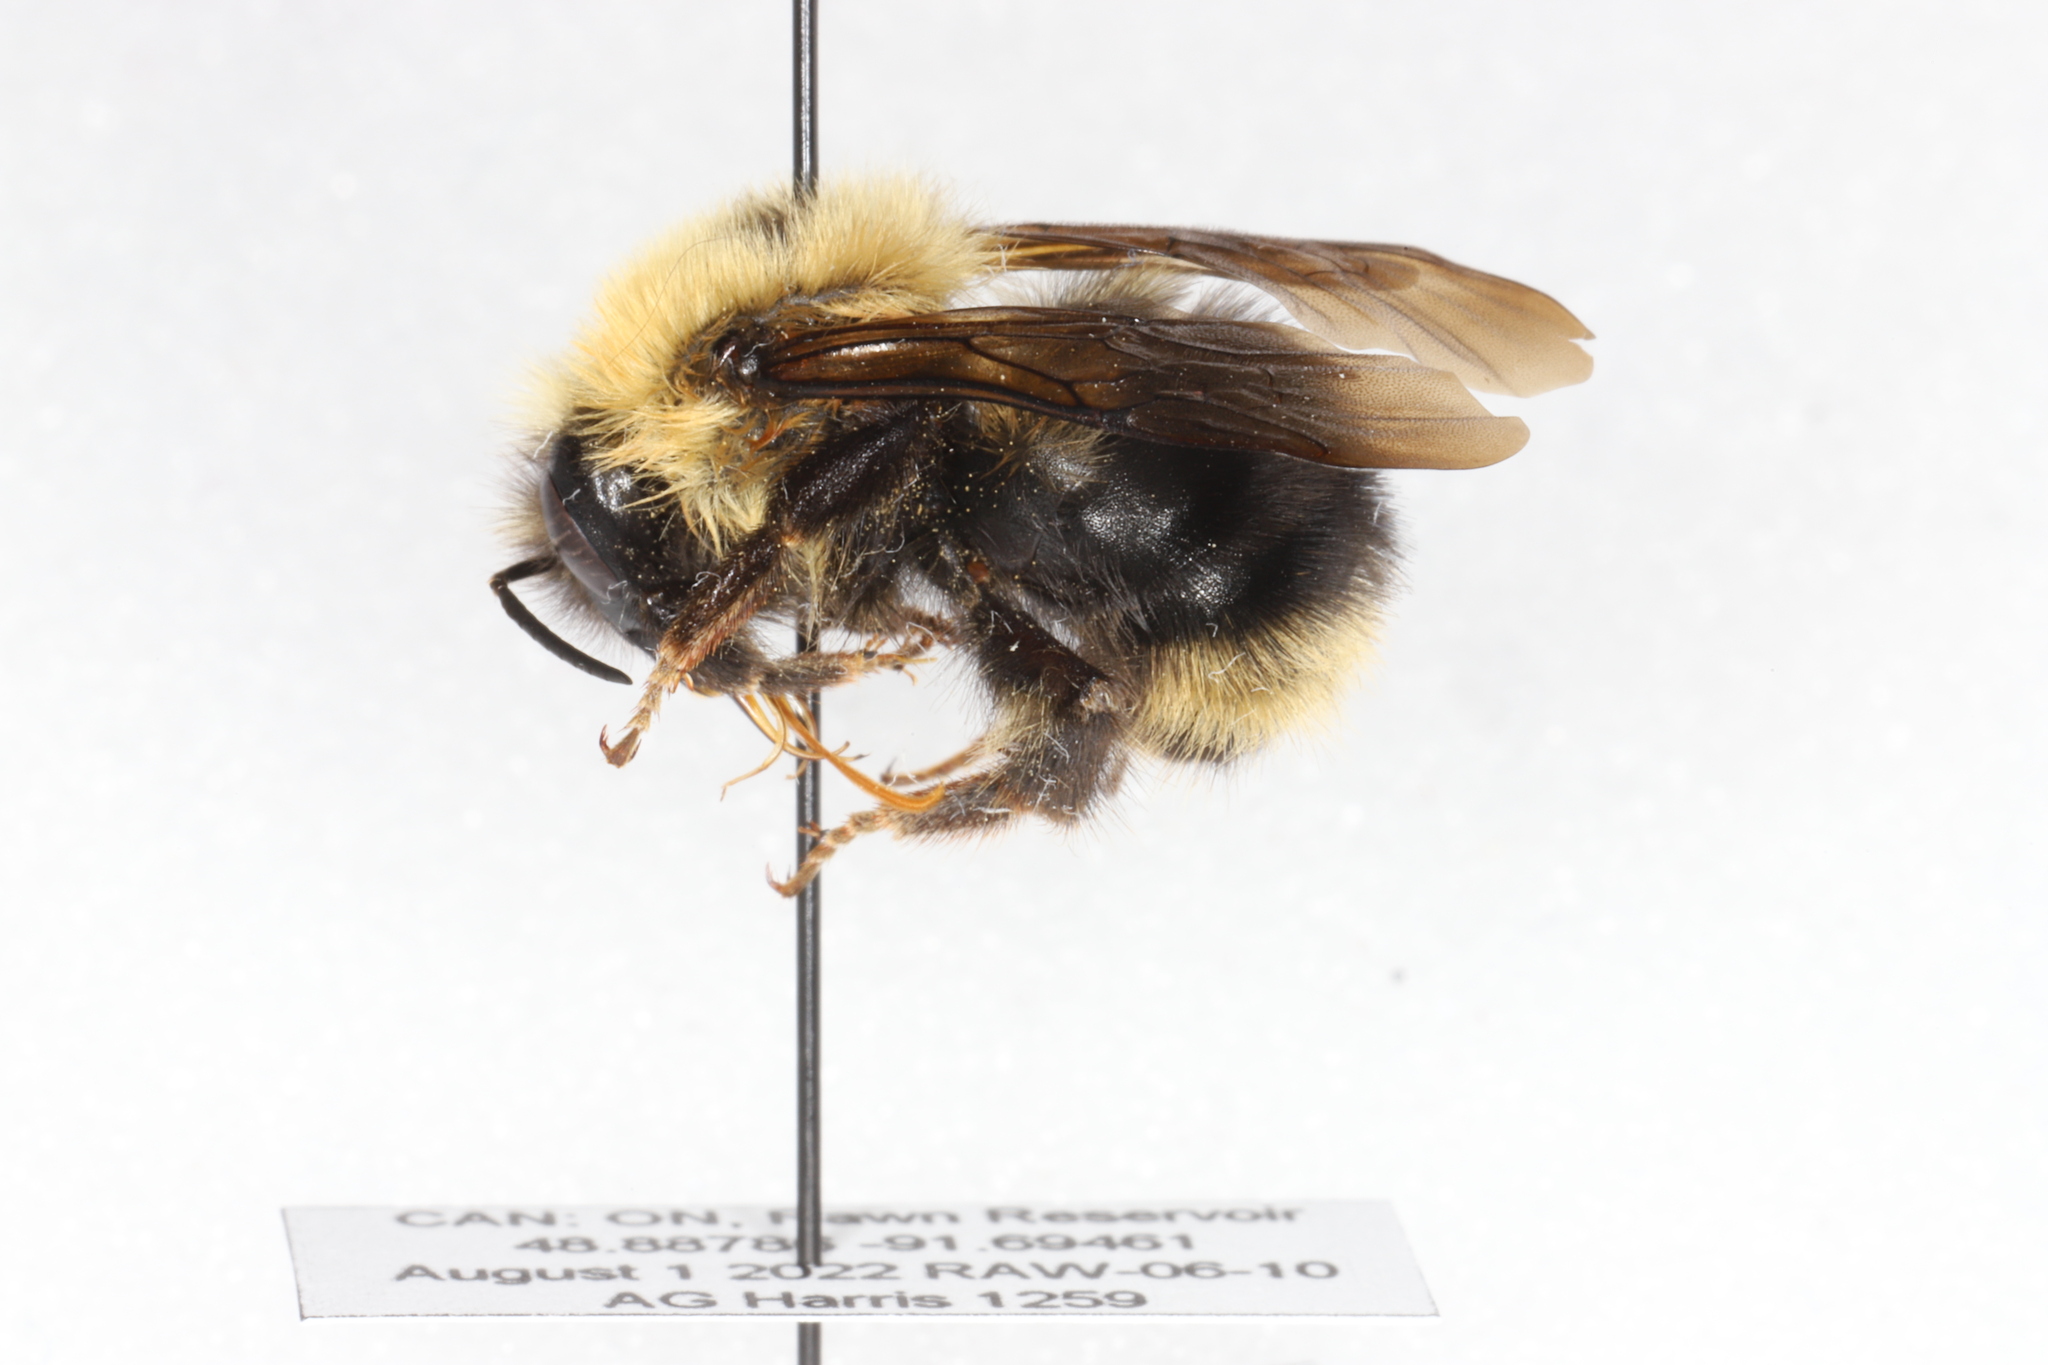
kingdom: Animalia
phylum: Arthropoda
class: Insecta
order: Hymenoptera
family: Apidae
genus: Bombus
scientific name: Bombus flavidus
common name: Fernald cuckoo bumble bee
